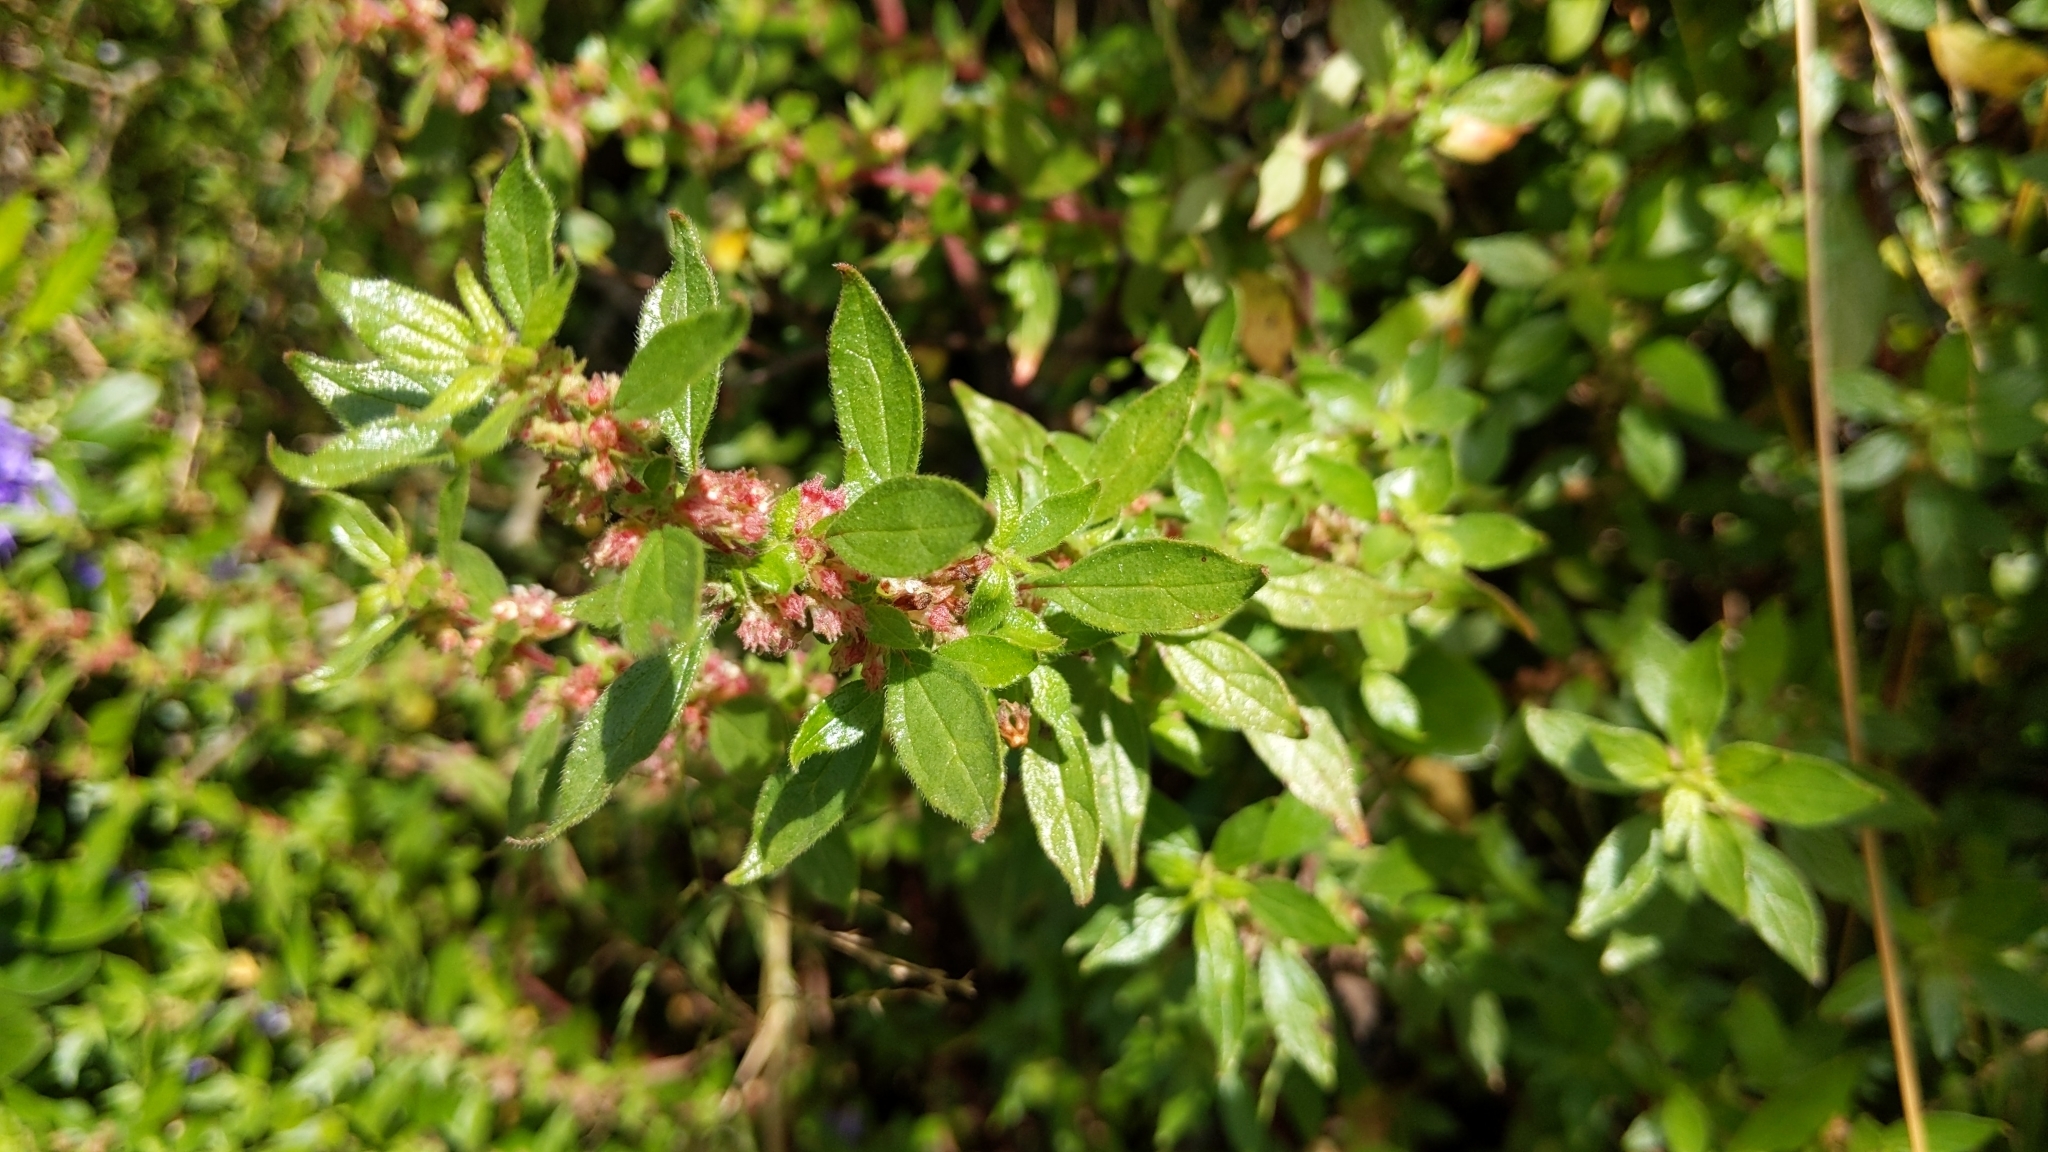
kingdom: Plantae
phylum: Tracheophyta
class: Magnoliopsida
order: Rosales
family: Urticaceae
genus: Parietaria
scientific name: Parietaria judaica
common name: Pellitory-of-the-wall
